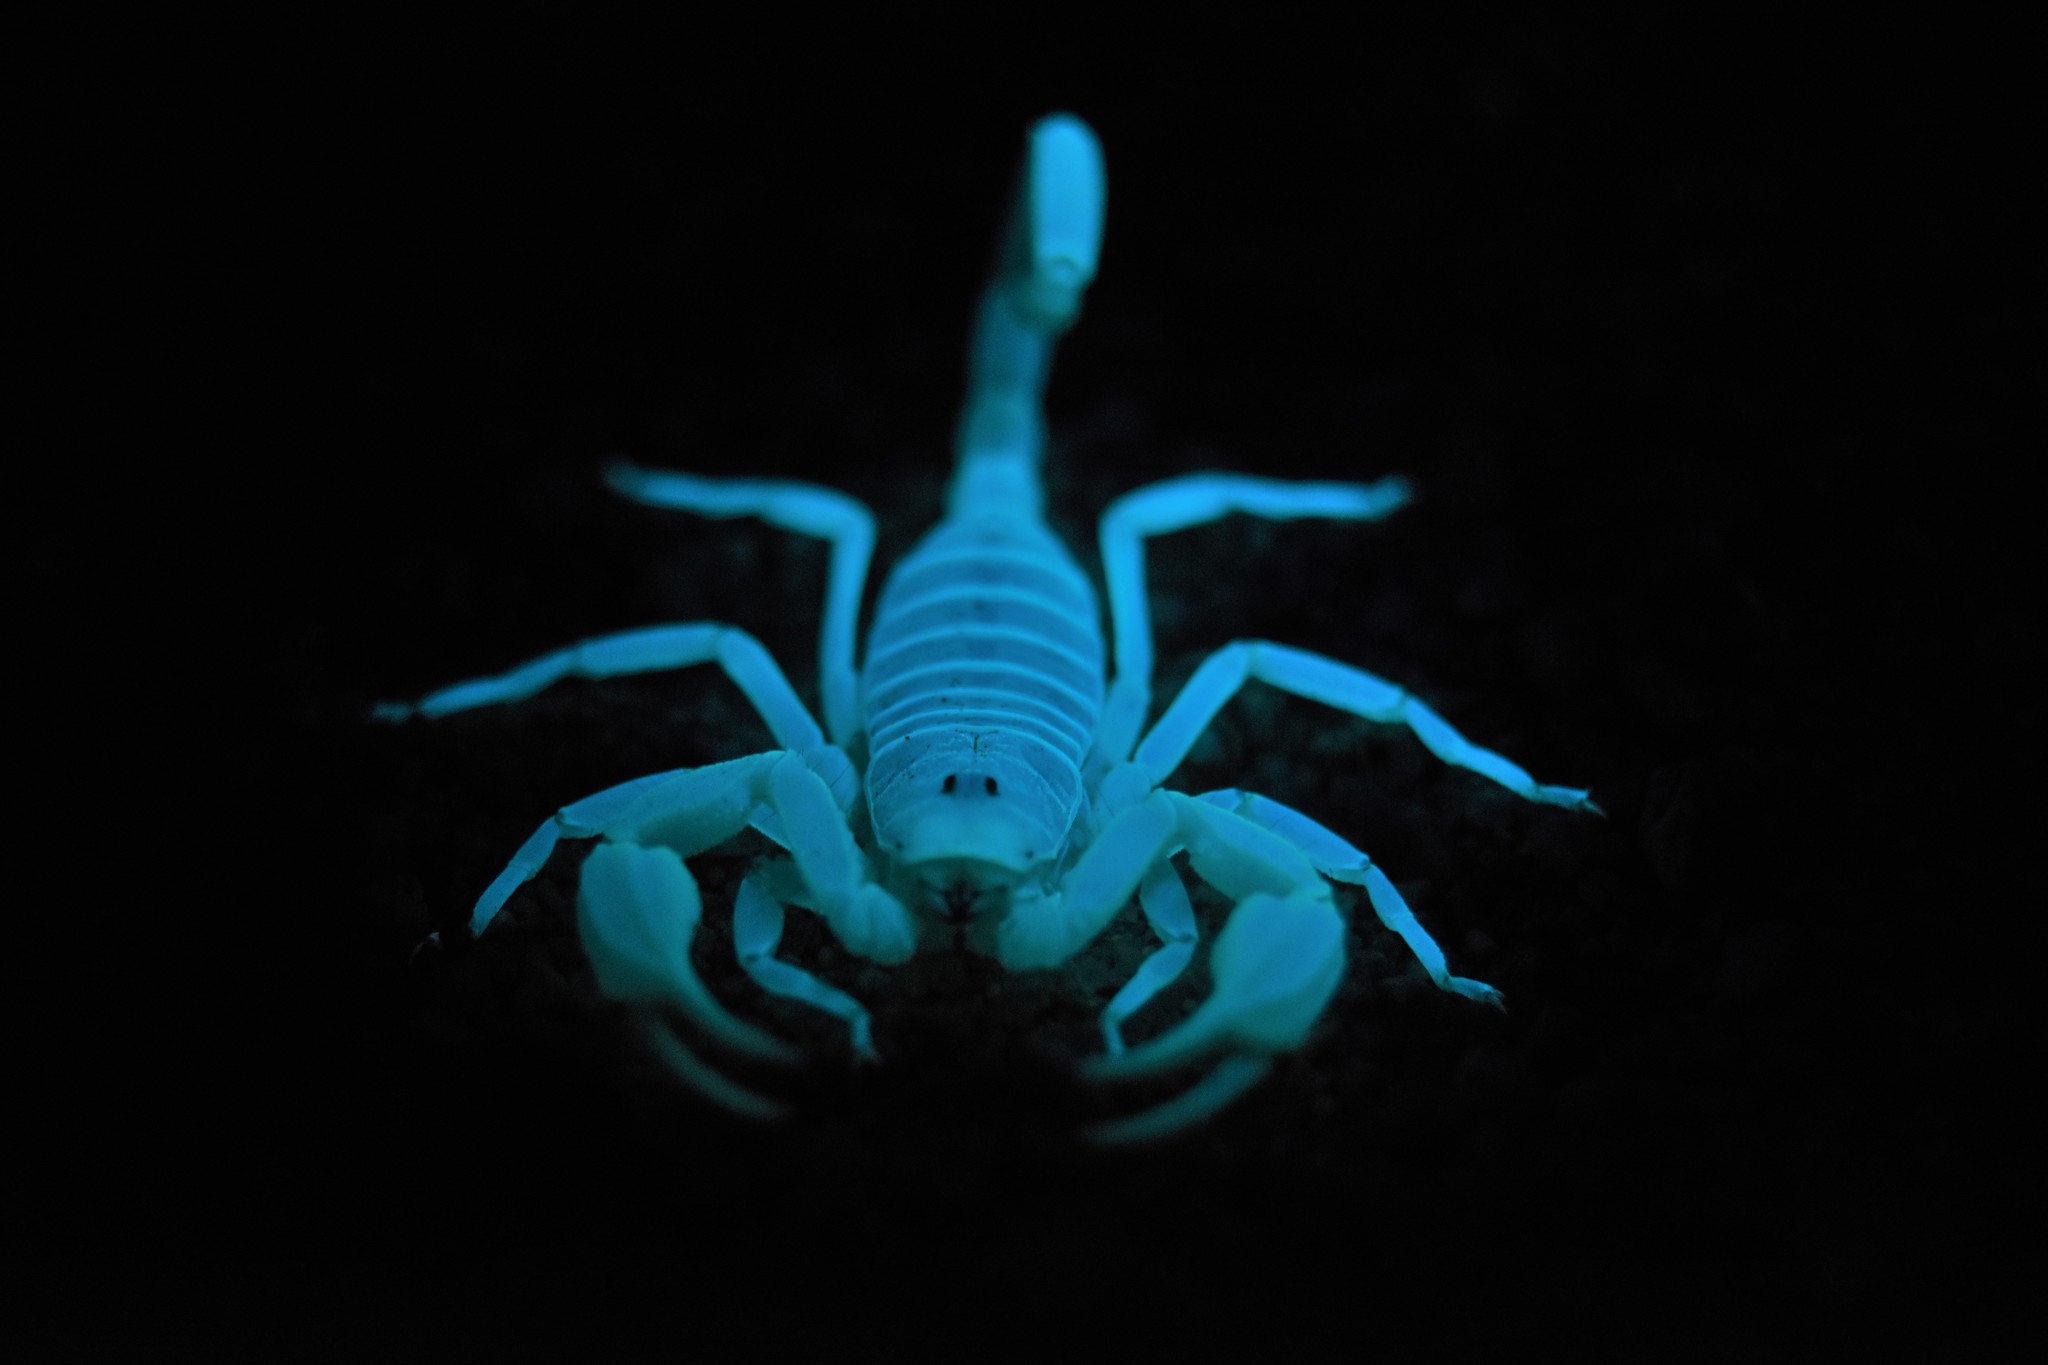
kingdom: Animalia
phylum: Arthropoda
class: Arachnida
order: Scorpiones
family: Vaejovidae
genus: Smeringurus
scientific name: Smeringurus mesaensis
